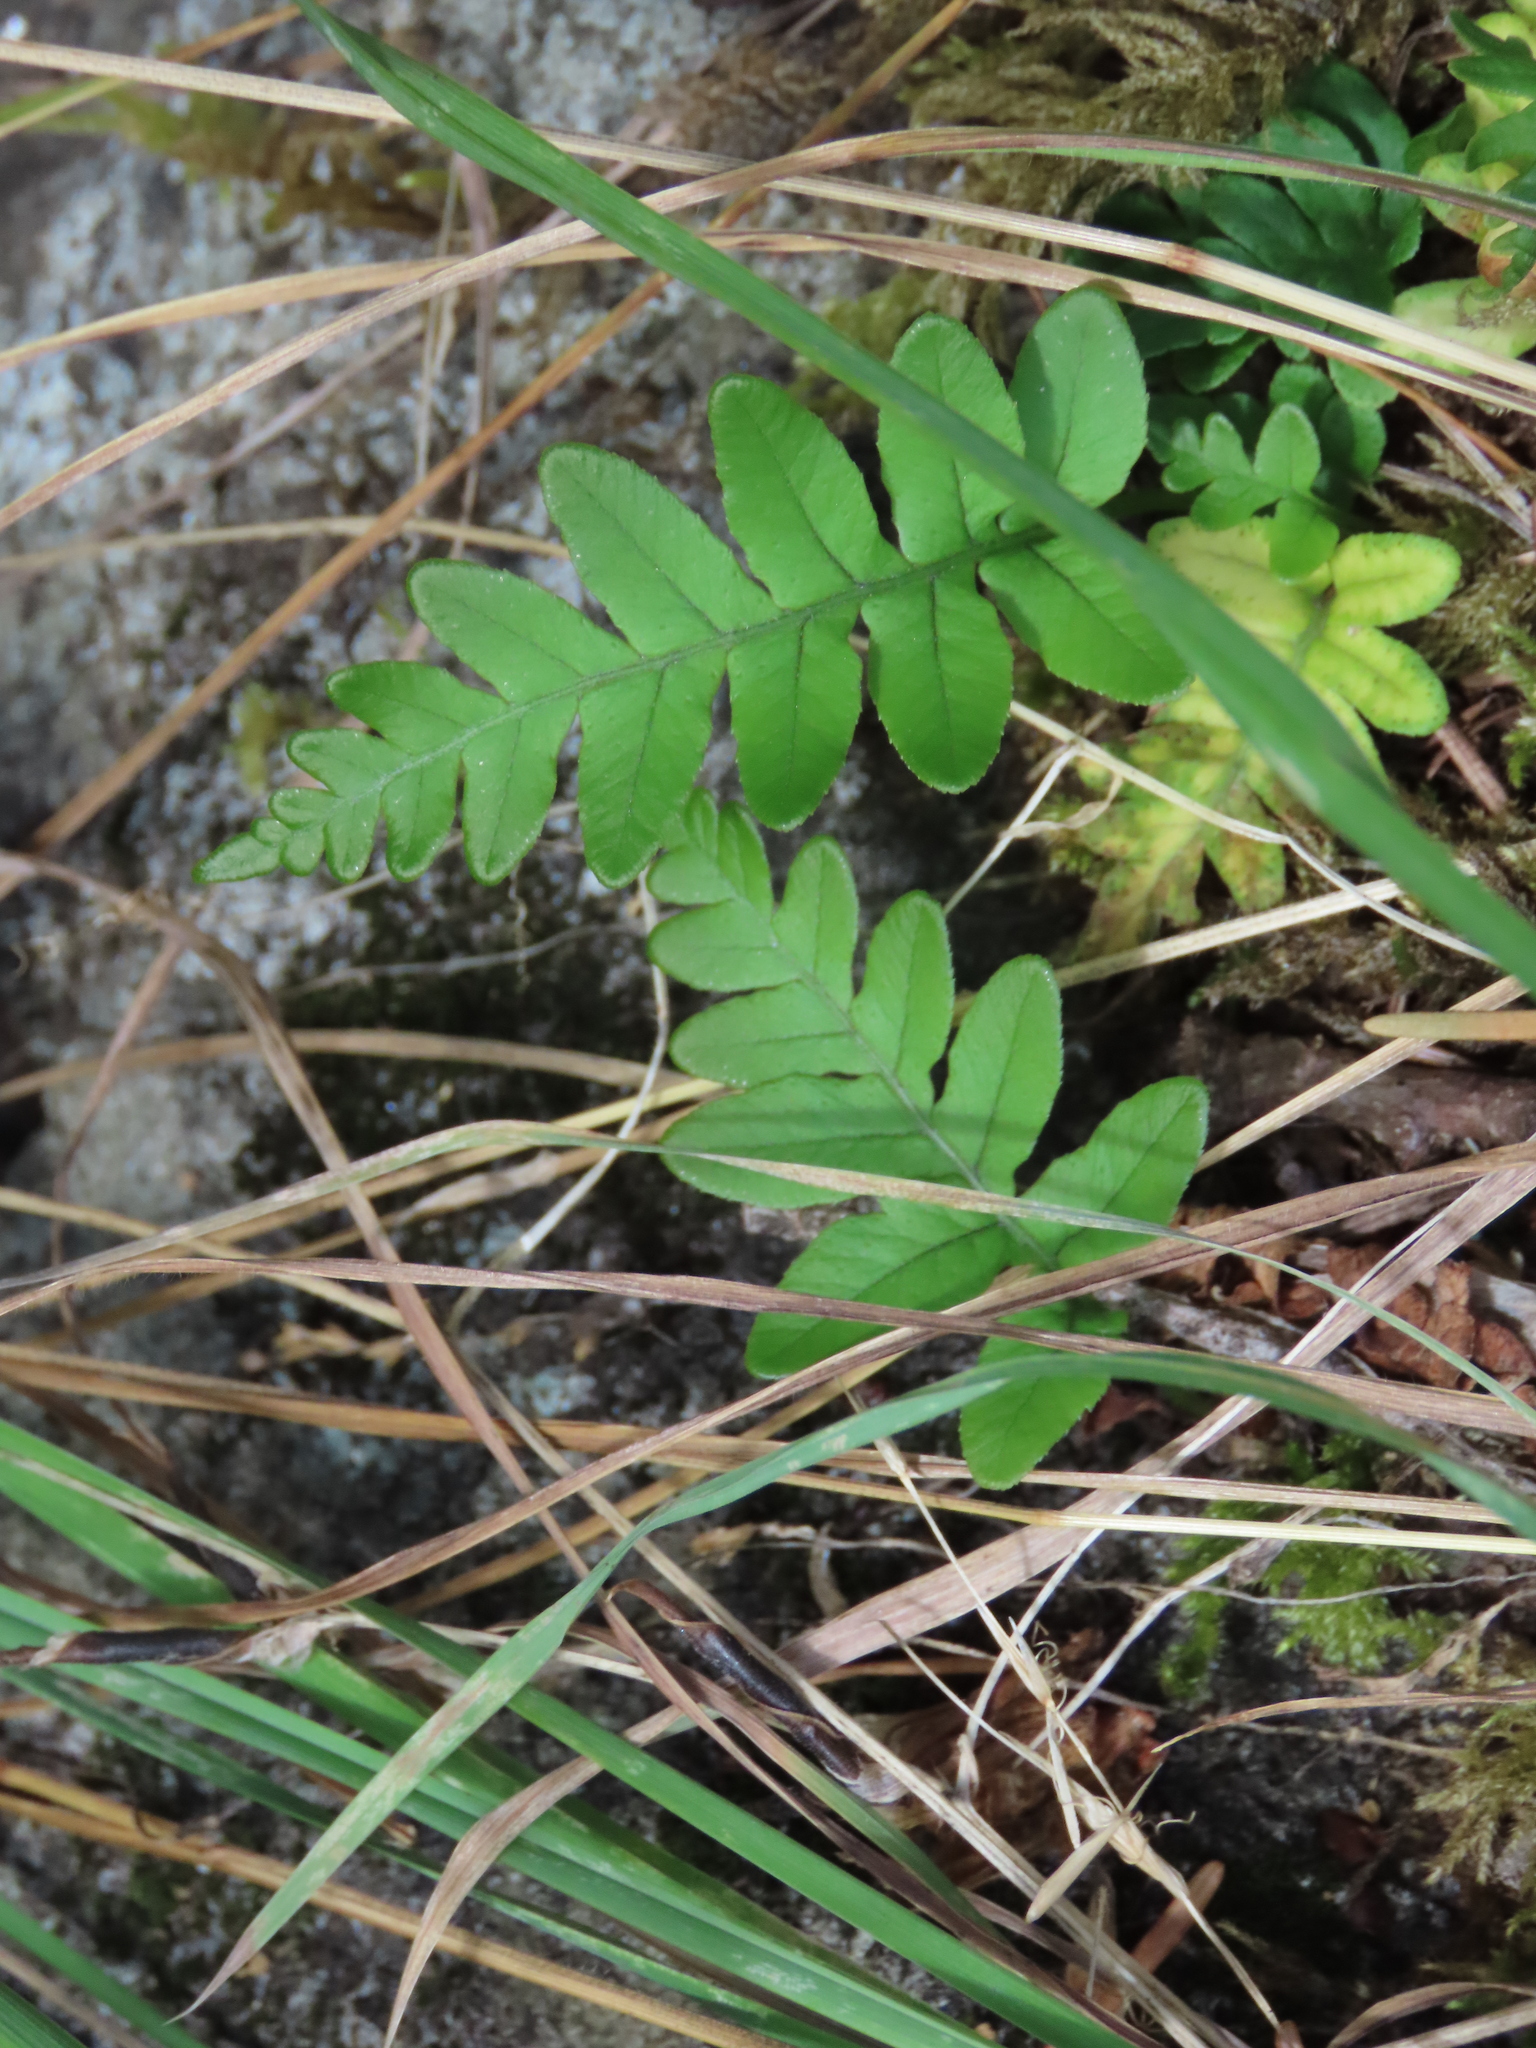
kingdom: Plantae
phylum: Tracheophyta
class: Polypodiopsida
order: Polypodiales
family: Polypodiaceae
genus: Polypodium
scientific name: Polypodium glycyrrhiza
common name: Licorice fern
